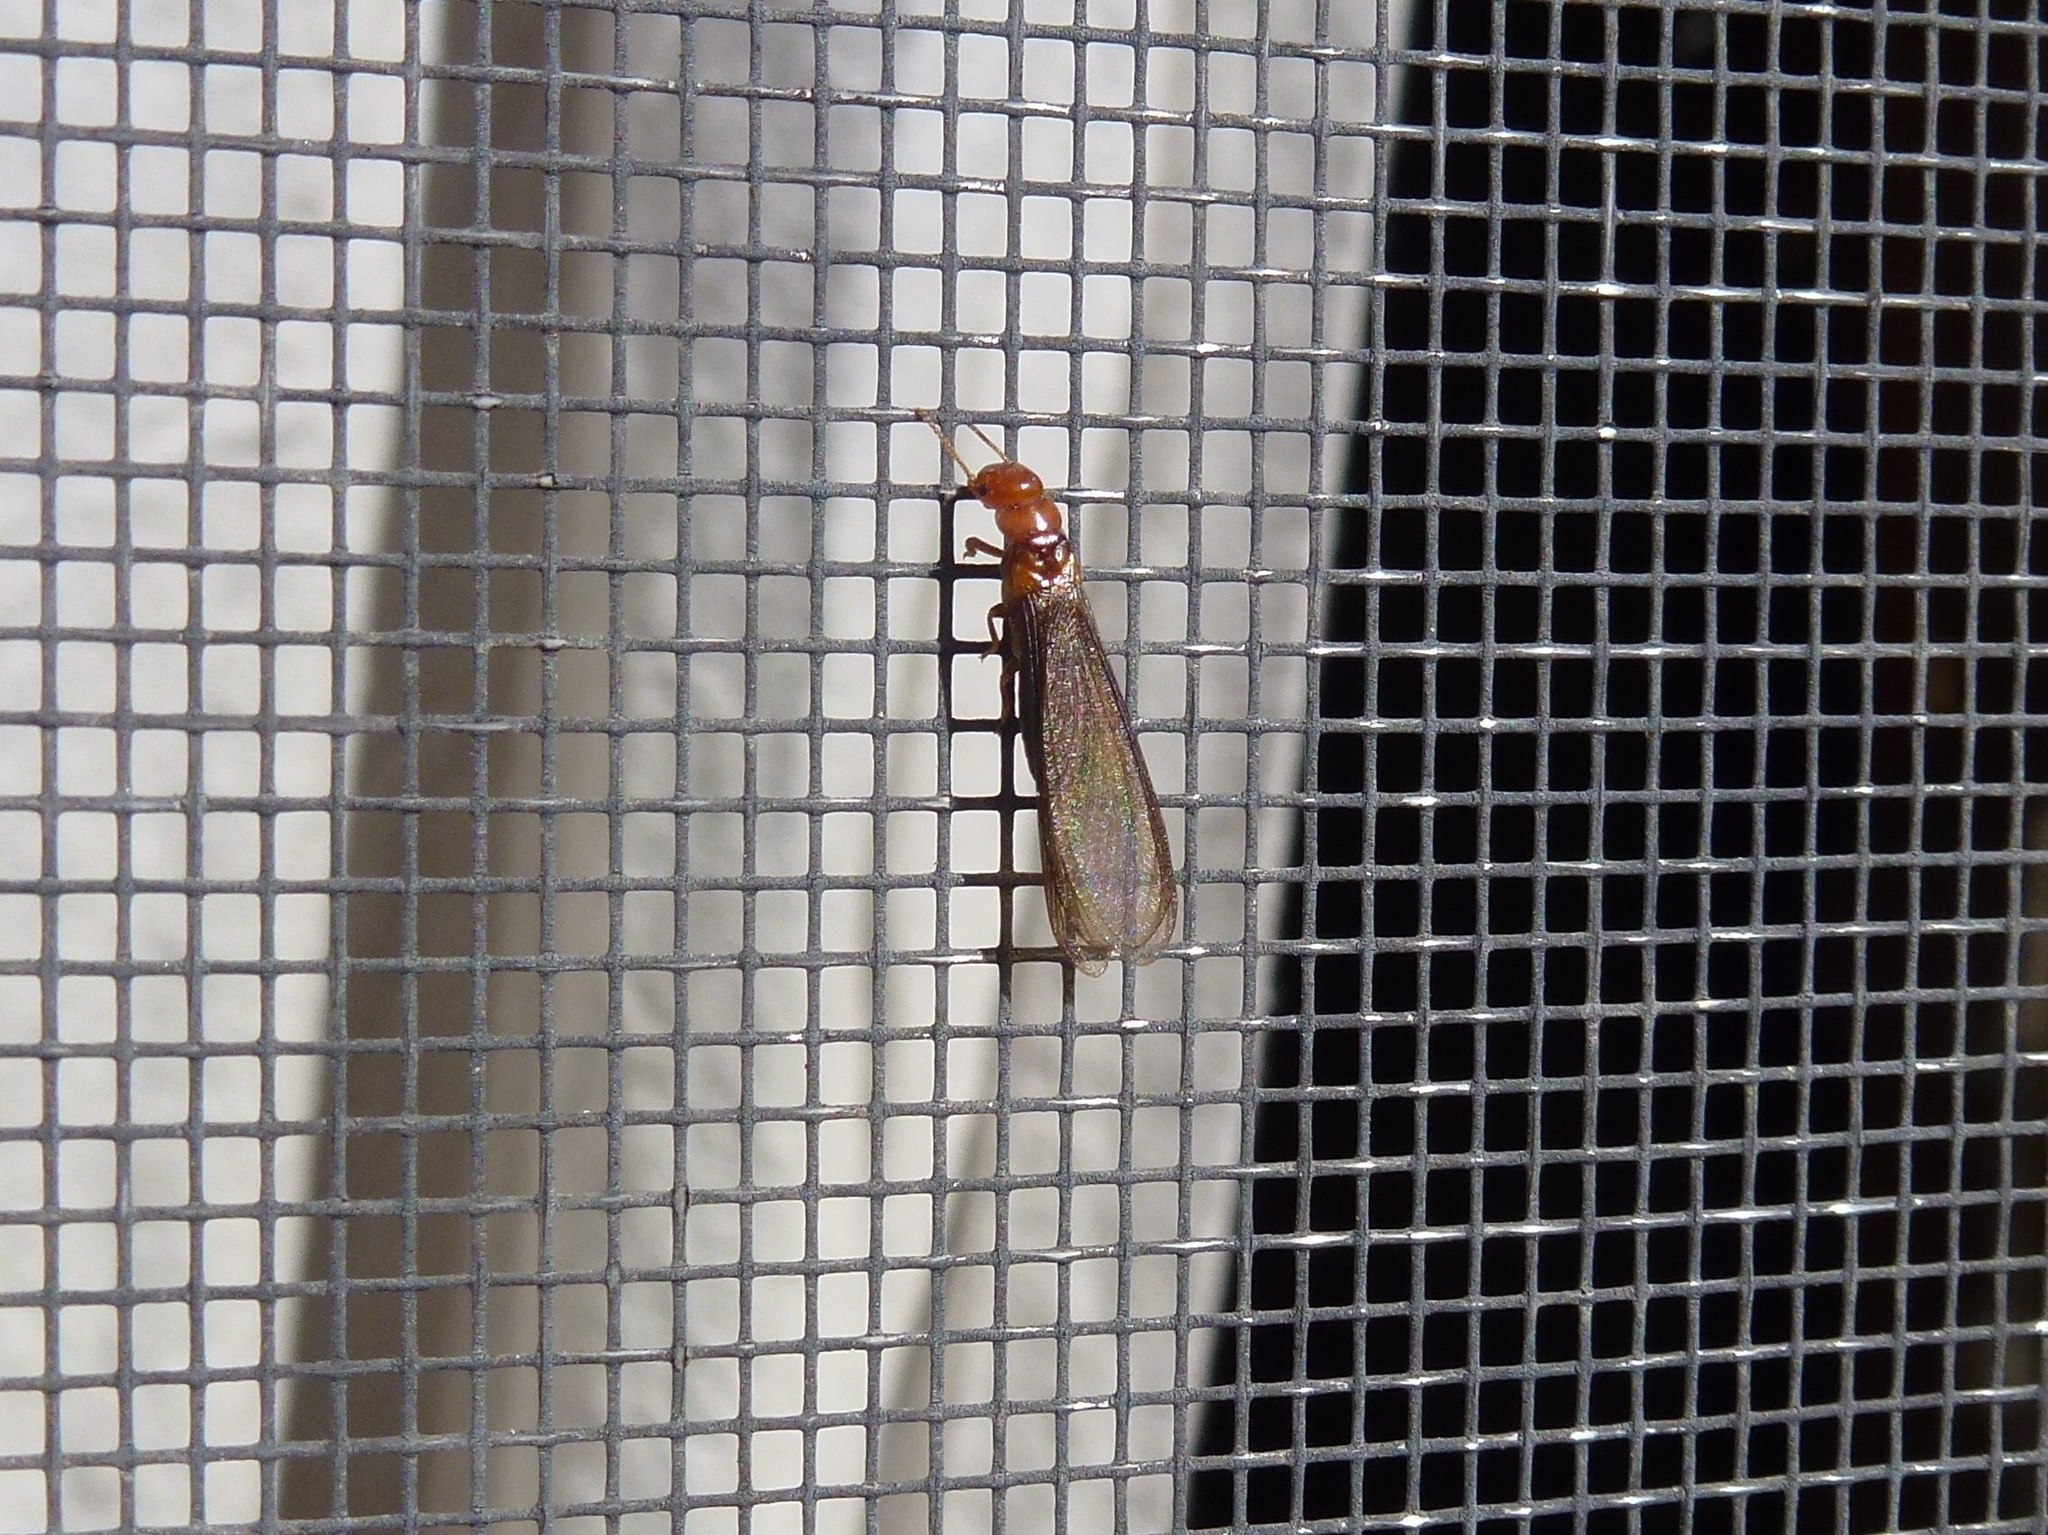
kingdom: Animalia
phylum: Arthropoda
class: Insecta
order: Blattodea
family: Kalotermitidae
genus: Incisitermes
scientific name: Incisitermes minor
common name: Termite
